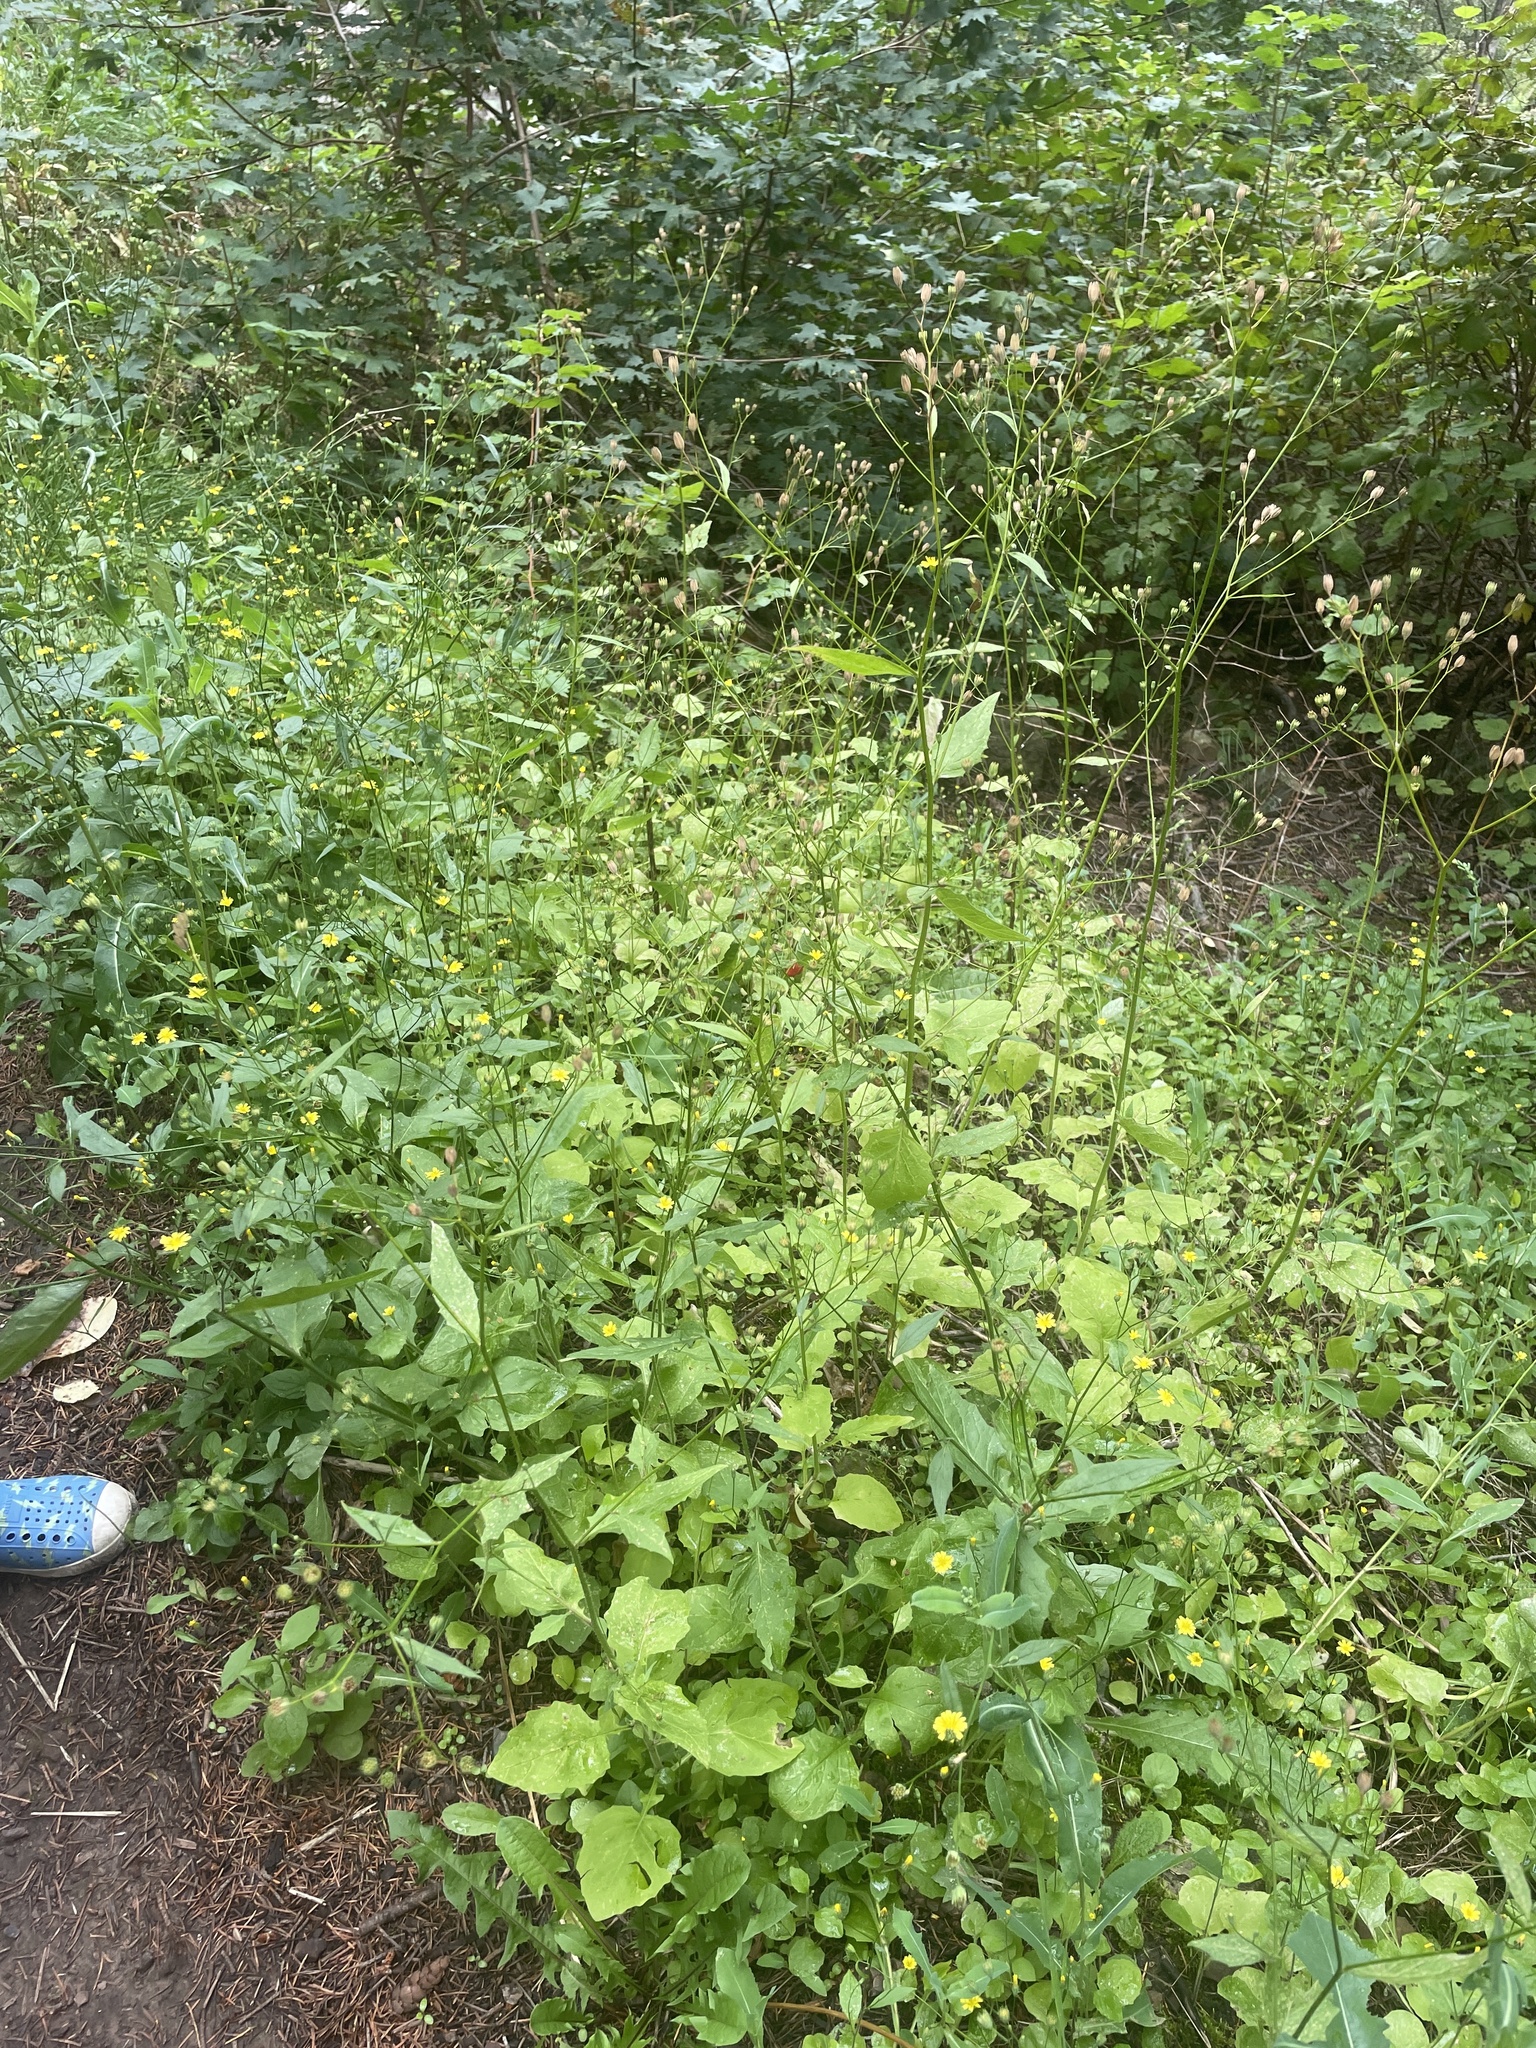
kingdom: Plantae
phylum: Tracheophyta
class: Magnoliopsida
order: Asterales
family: Asteraceae
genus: Lapsana
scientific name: Lapsana communis
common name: Nipplewort
